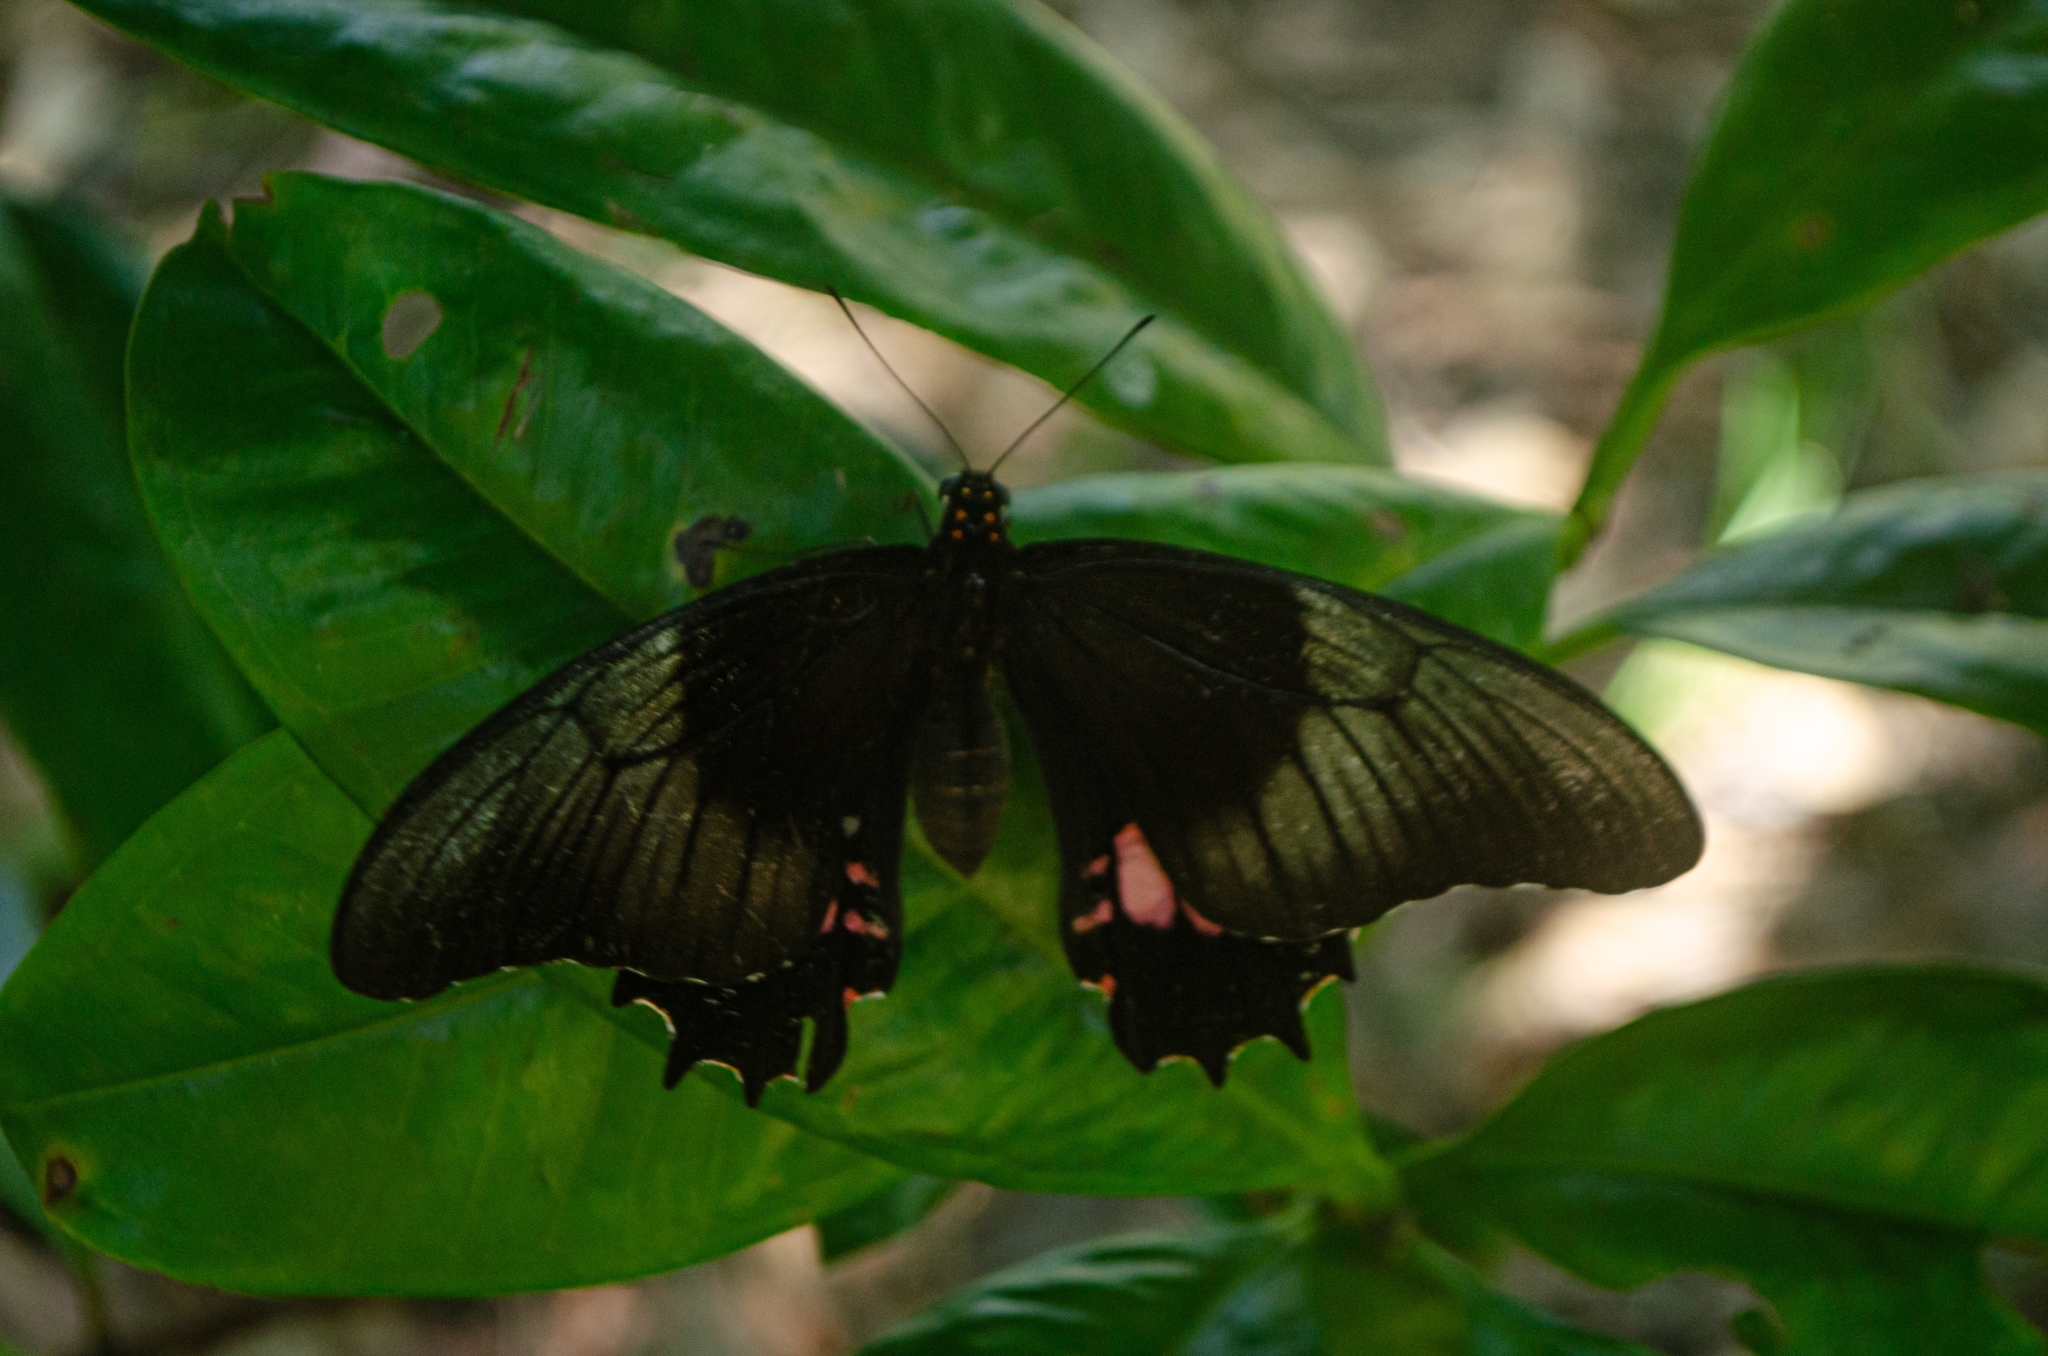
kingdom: Animalia
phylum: Arthropoda
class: Insecta
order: Lepidoptera
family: Papilionidae
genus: Papilio
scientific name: Papilio anchisiades
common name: Idaes swallowtail
